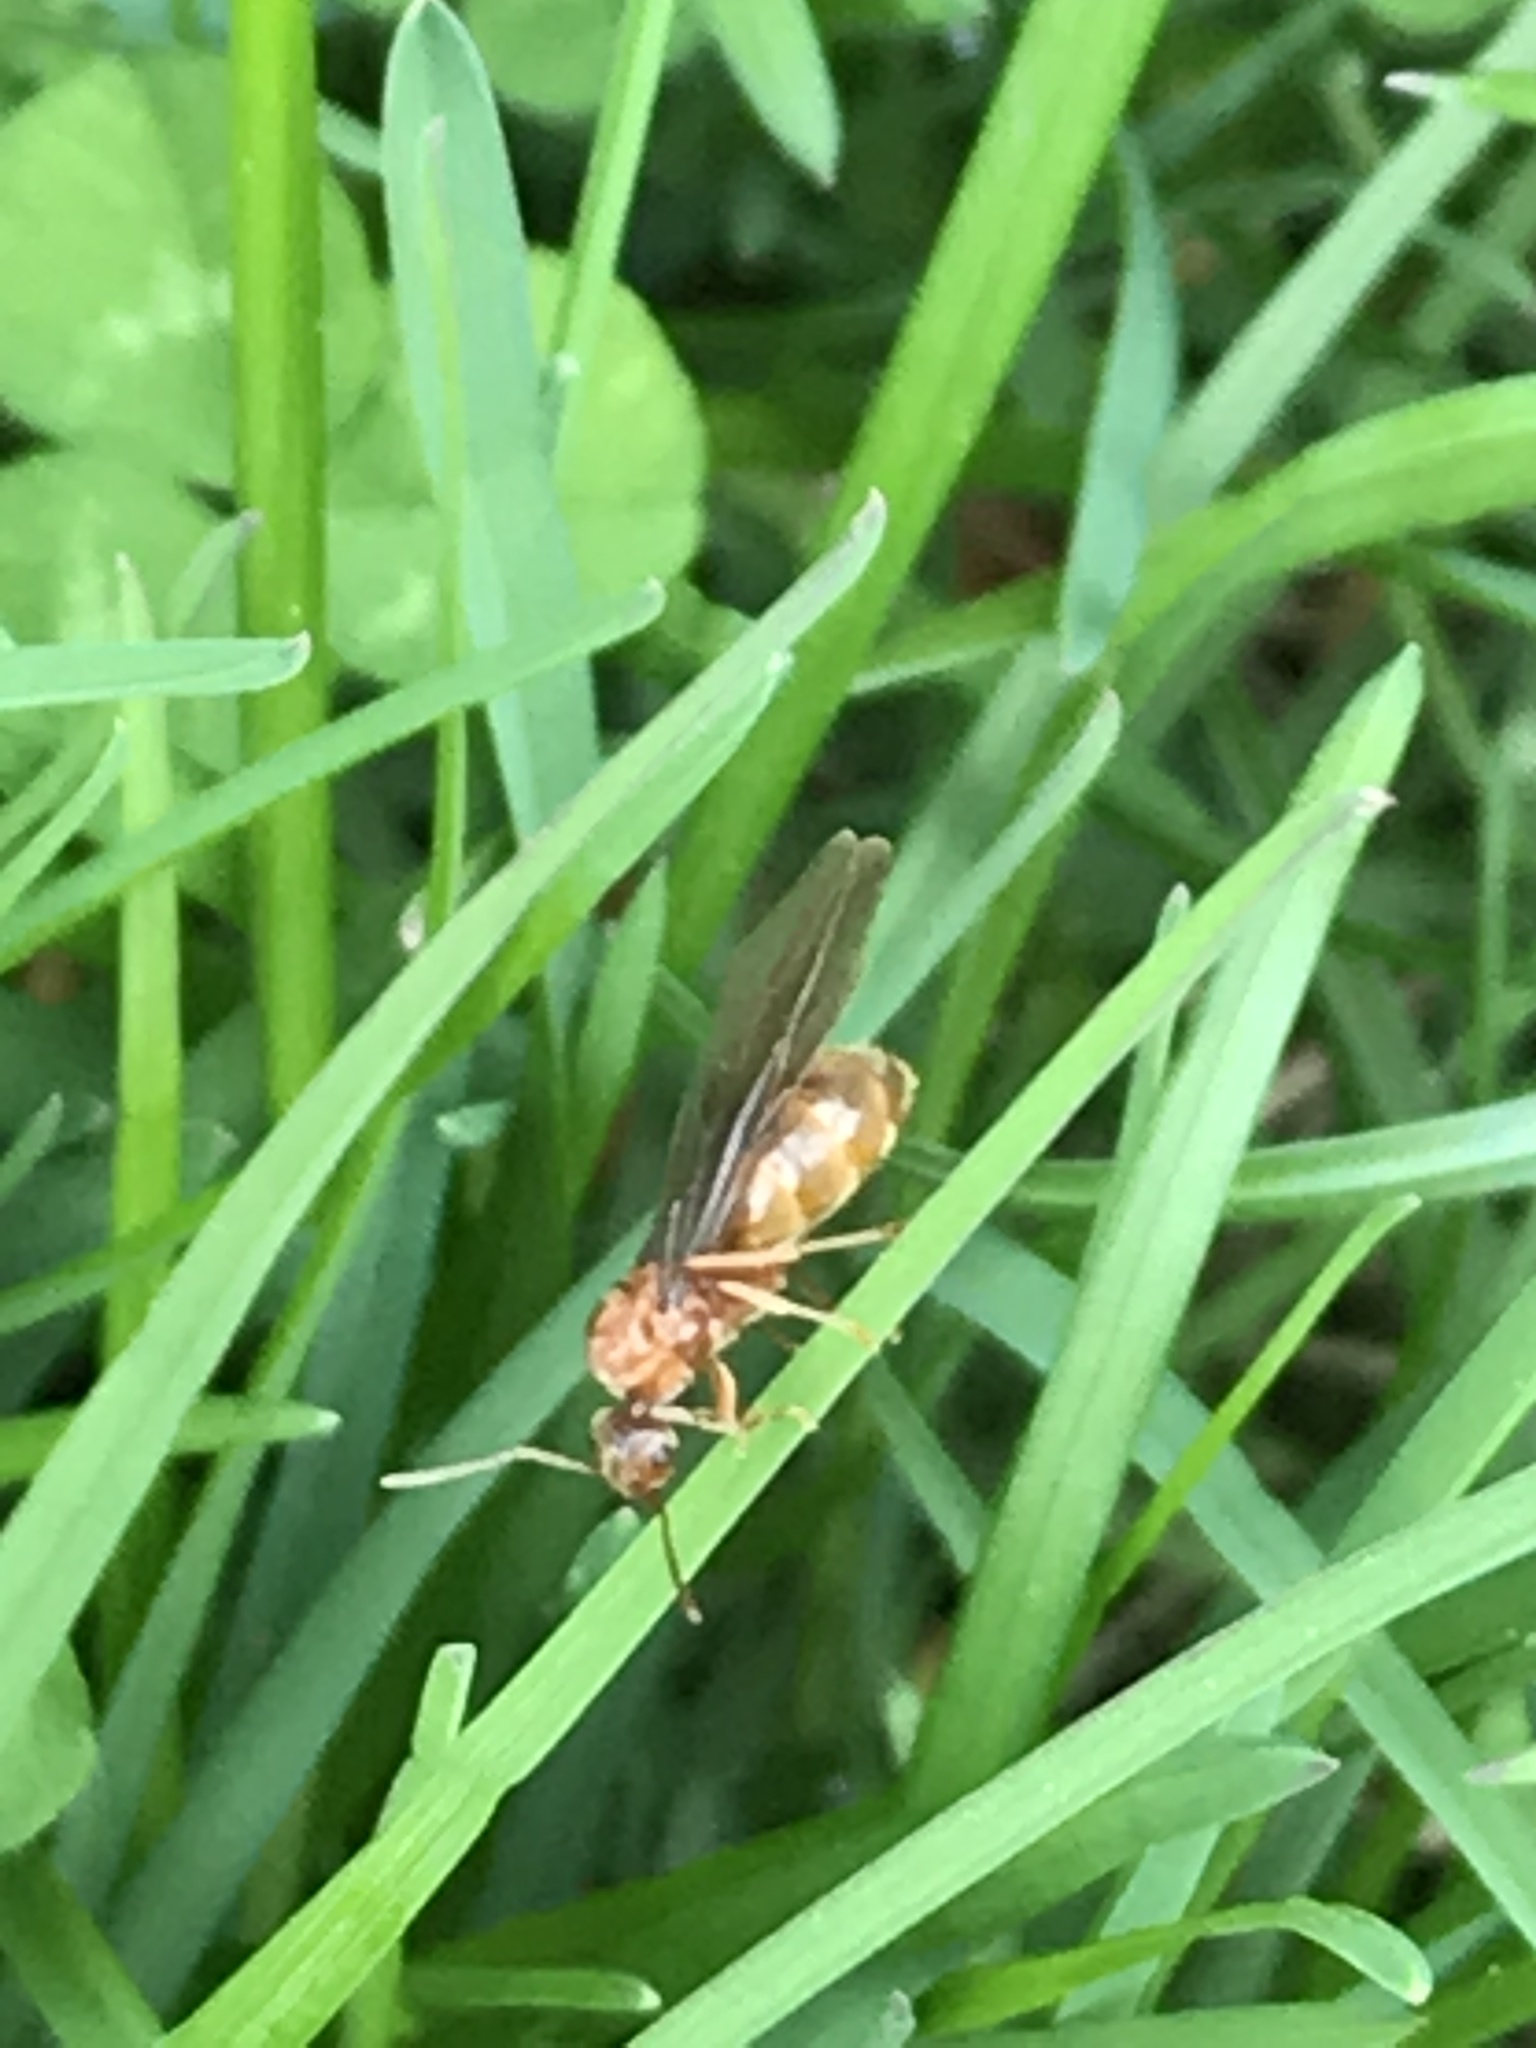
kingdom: Animalia
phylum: Arthropoda
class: Insecta
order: Hymenoptera
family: Formicidae
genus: Prenolepis
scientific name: Prenolepis imparis
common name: Small honey ant
